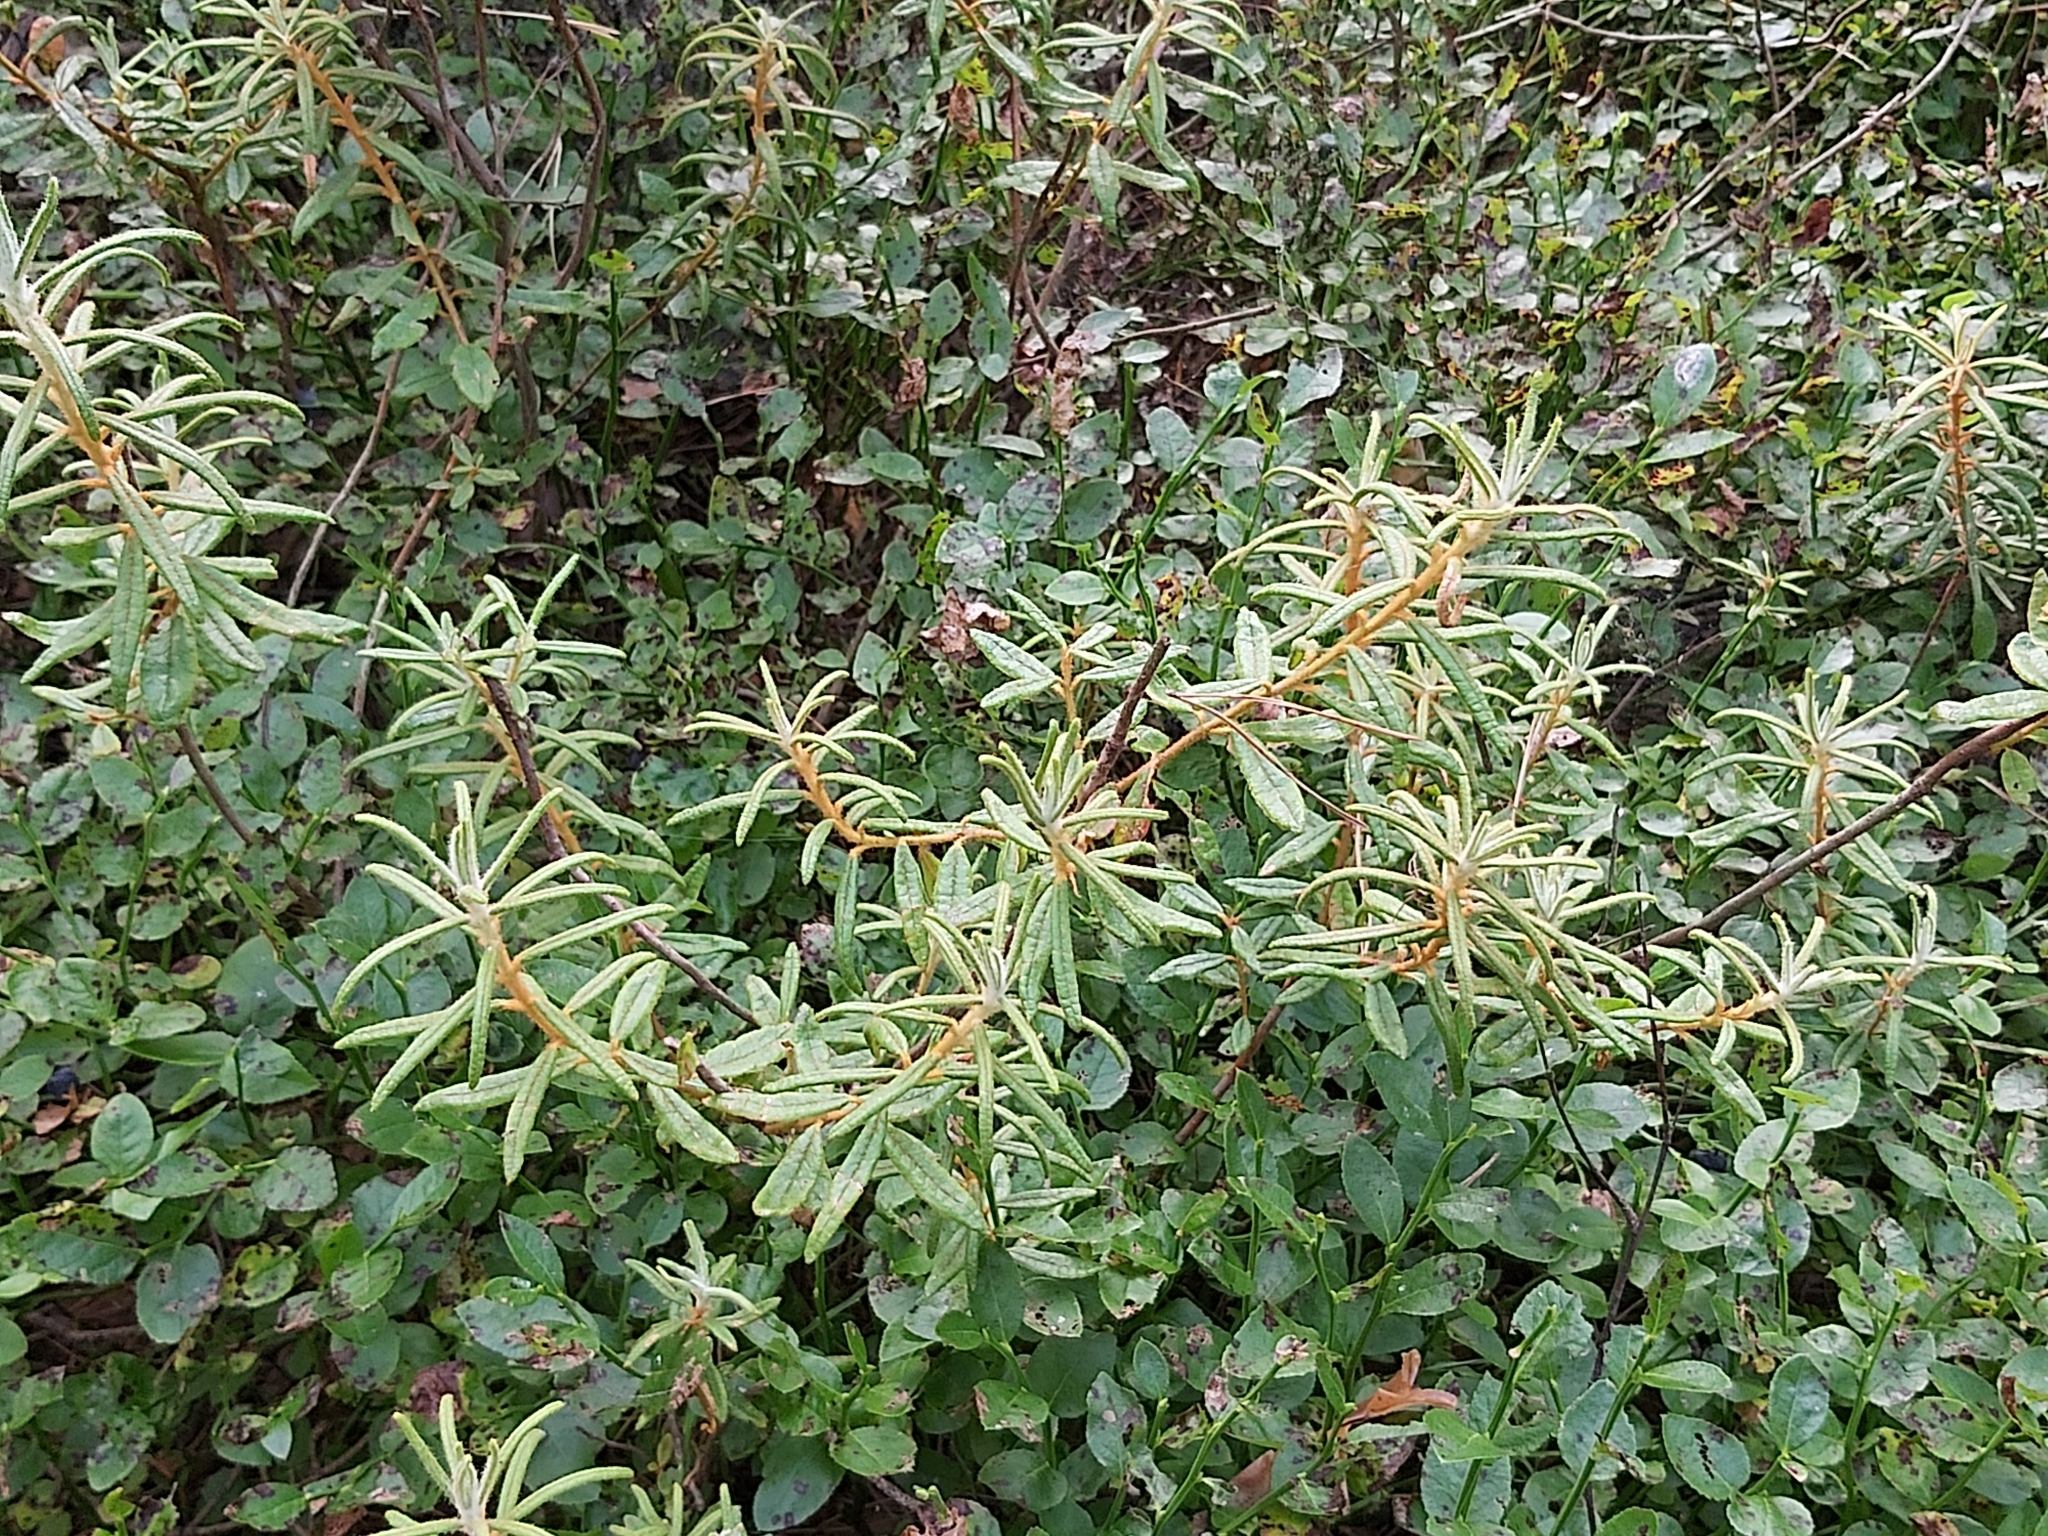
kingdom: Plantae
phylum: Tracheophyta
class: Magnoliopsida
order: Ericales
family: Ericaceae
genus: Rhododendron
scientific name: Rhododendron tomentosum
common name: Marsh labrador tea
